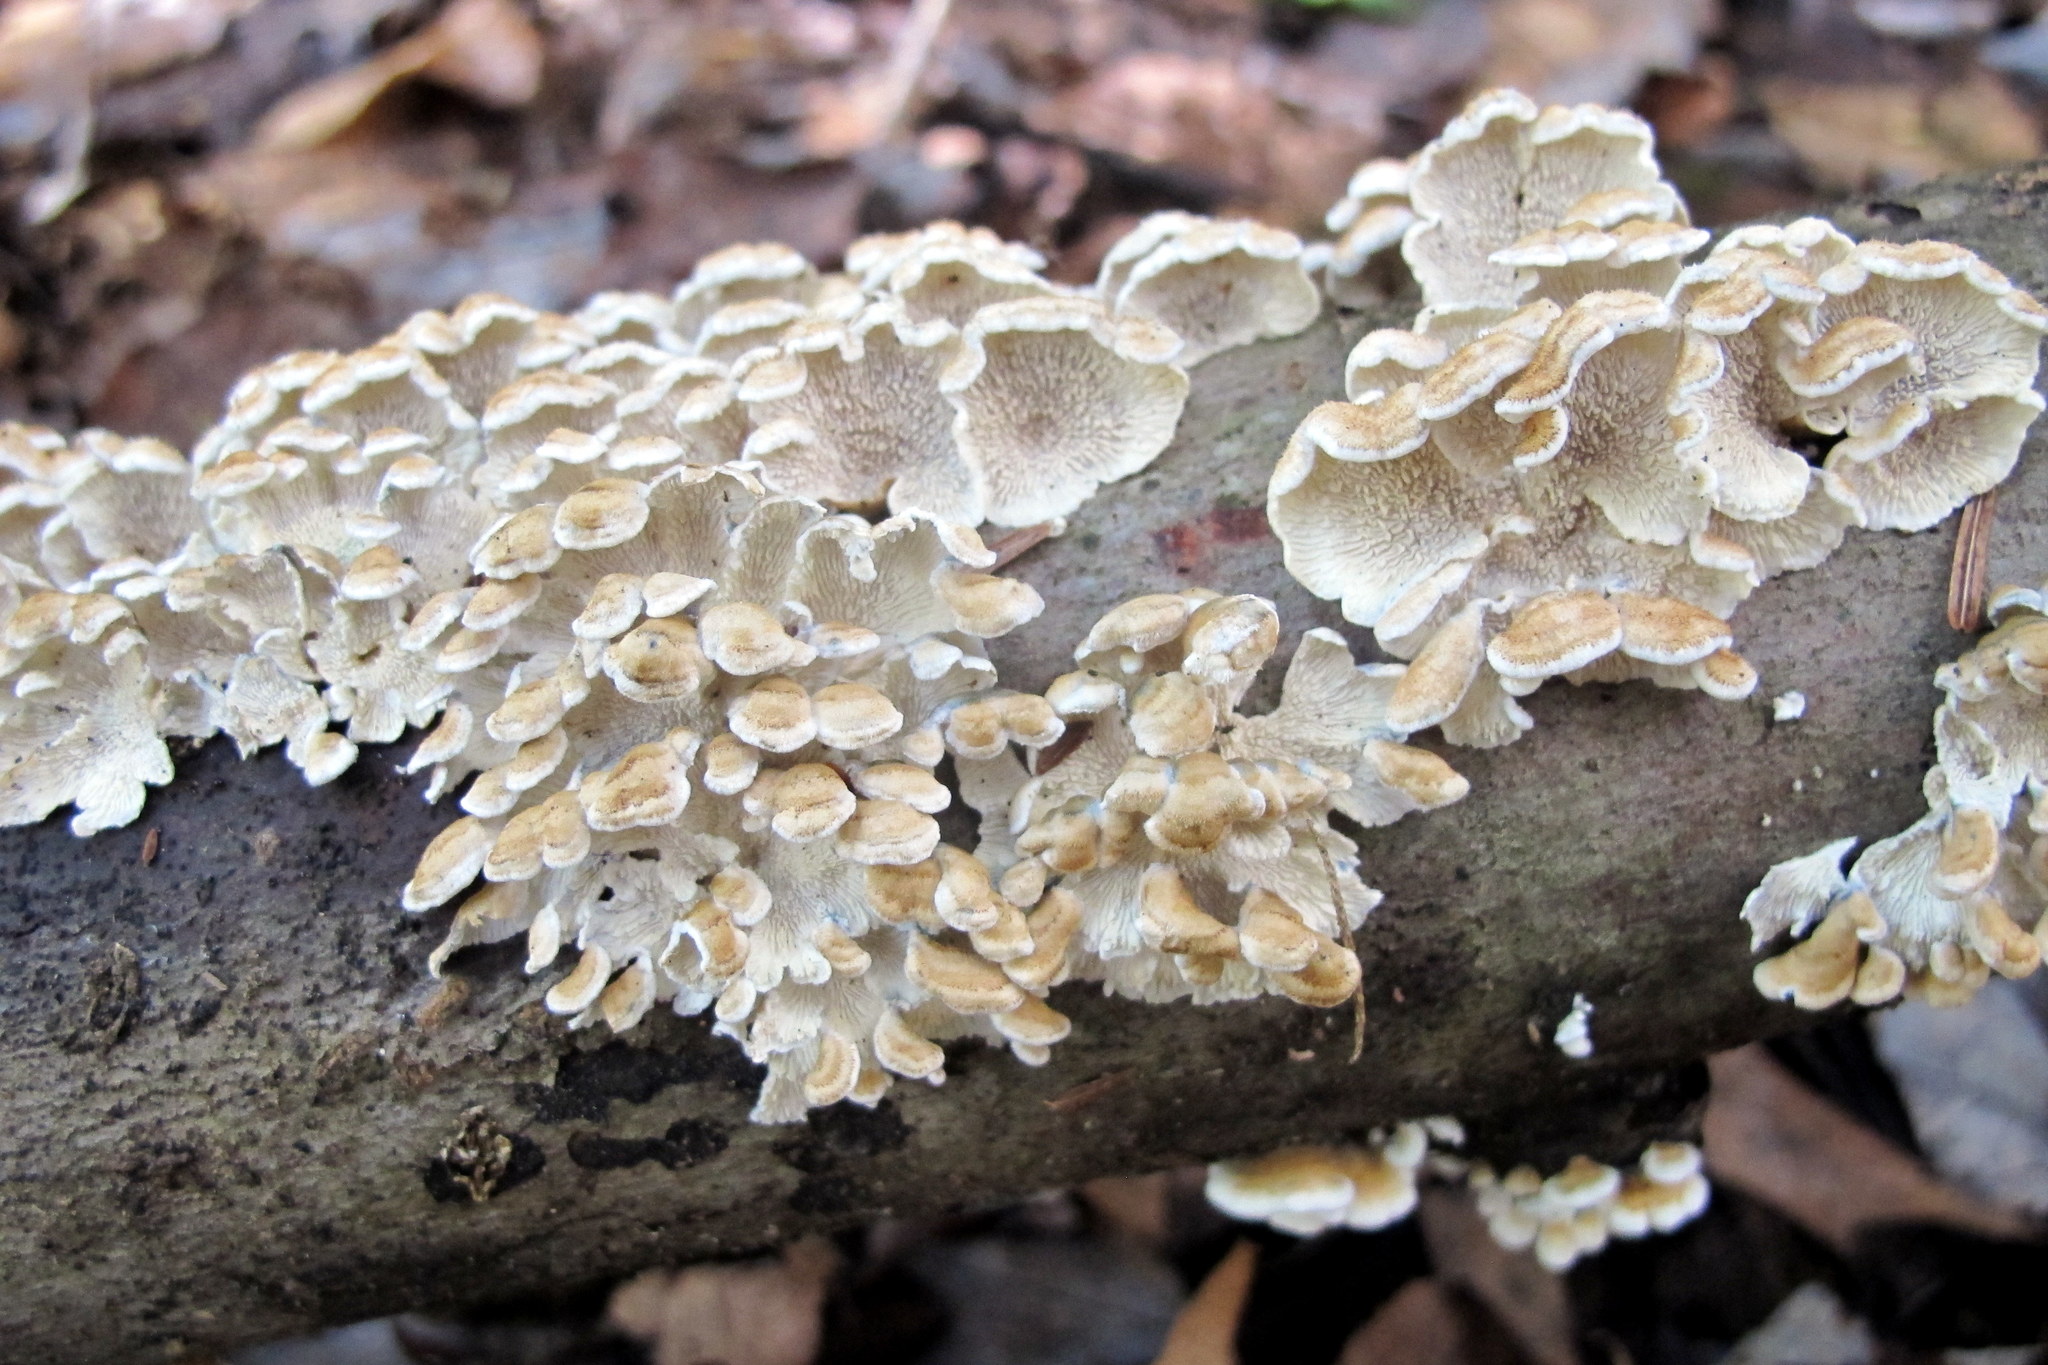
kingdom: Fungi
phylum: Basidiomycota
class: Agaricomycetes
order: Amylocorticiales
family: Amylocorticiaceae
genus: Plicaturopsis
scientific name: Plicaturopsis crispa
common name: Crimped gill
